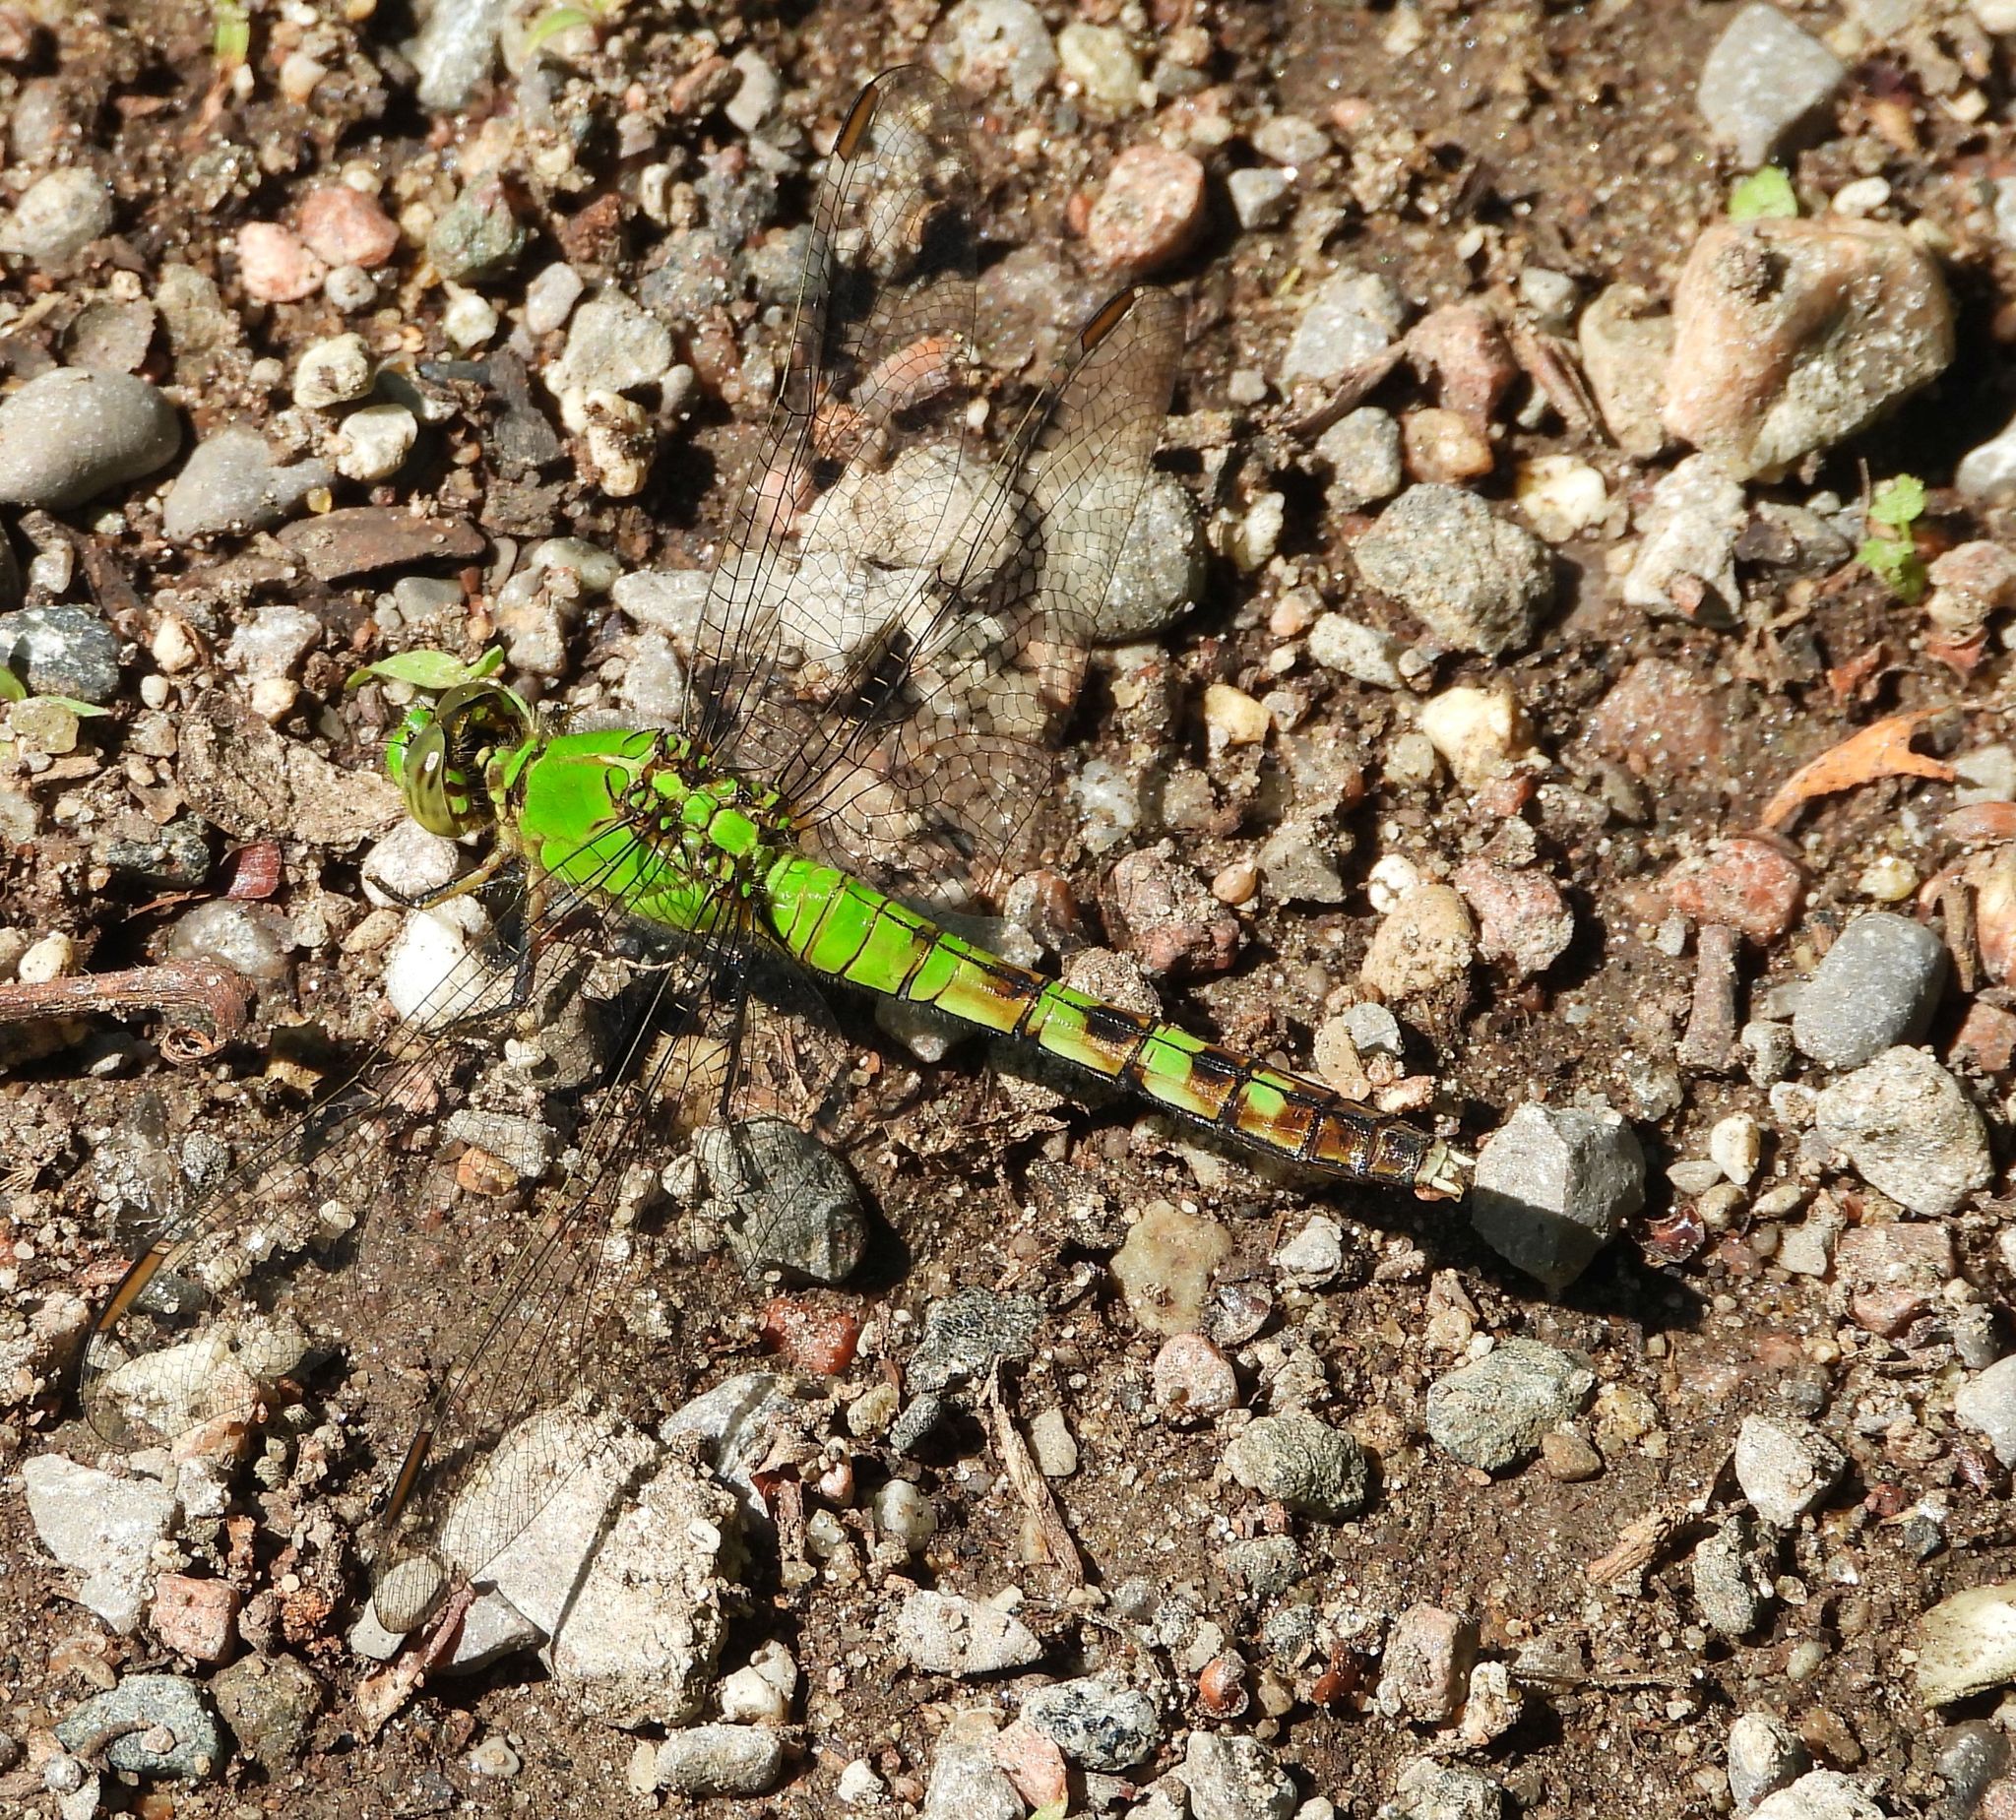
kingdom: Animalia
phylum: Arthropoda
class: Insecta
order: Odonata
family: Libellulidae
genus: Erythemis
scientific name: Erythemis simplicicollis
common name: Eastern pondhawk
